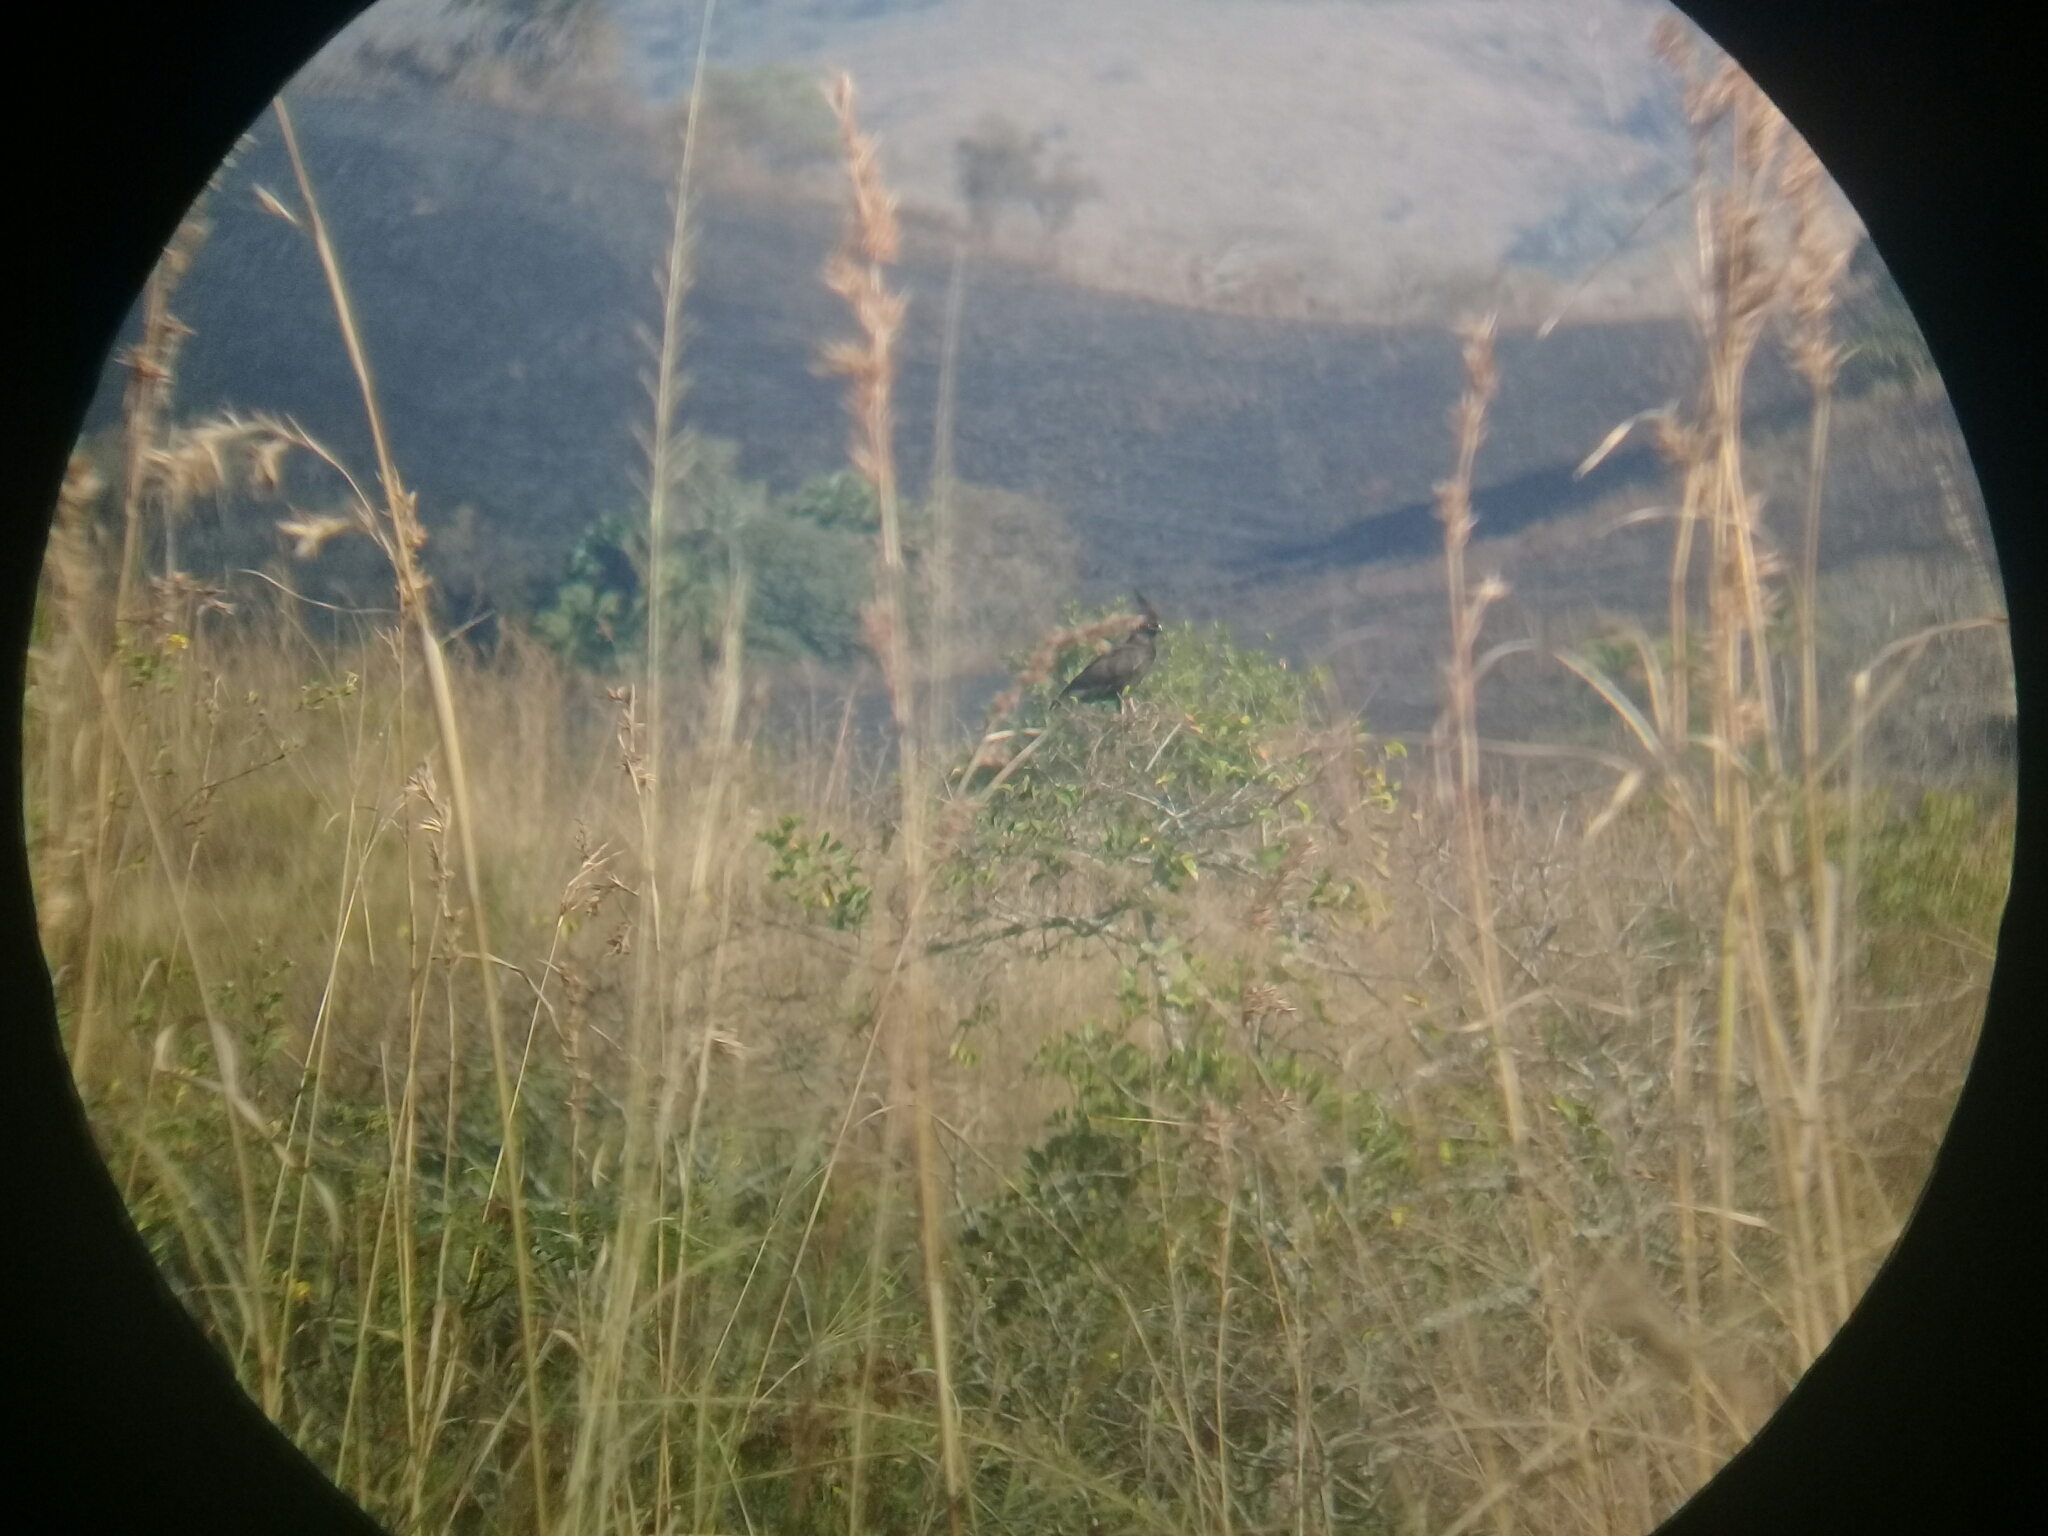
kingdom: Animalia
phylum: Chordata
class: Aves
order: Accipitriformes
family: Accipitridae
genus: Lophaetus
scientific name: Lophaetus occipitalis
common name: Long-crested eagle
